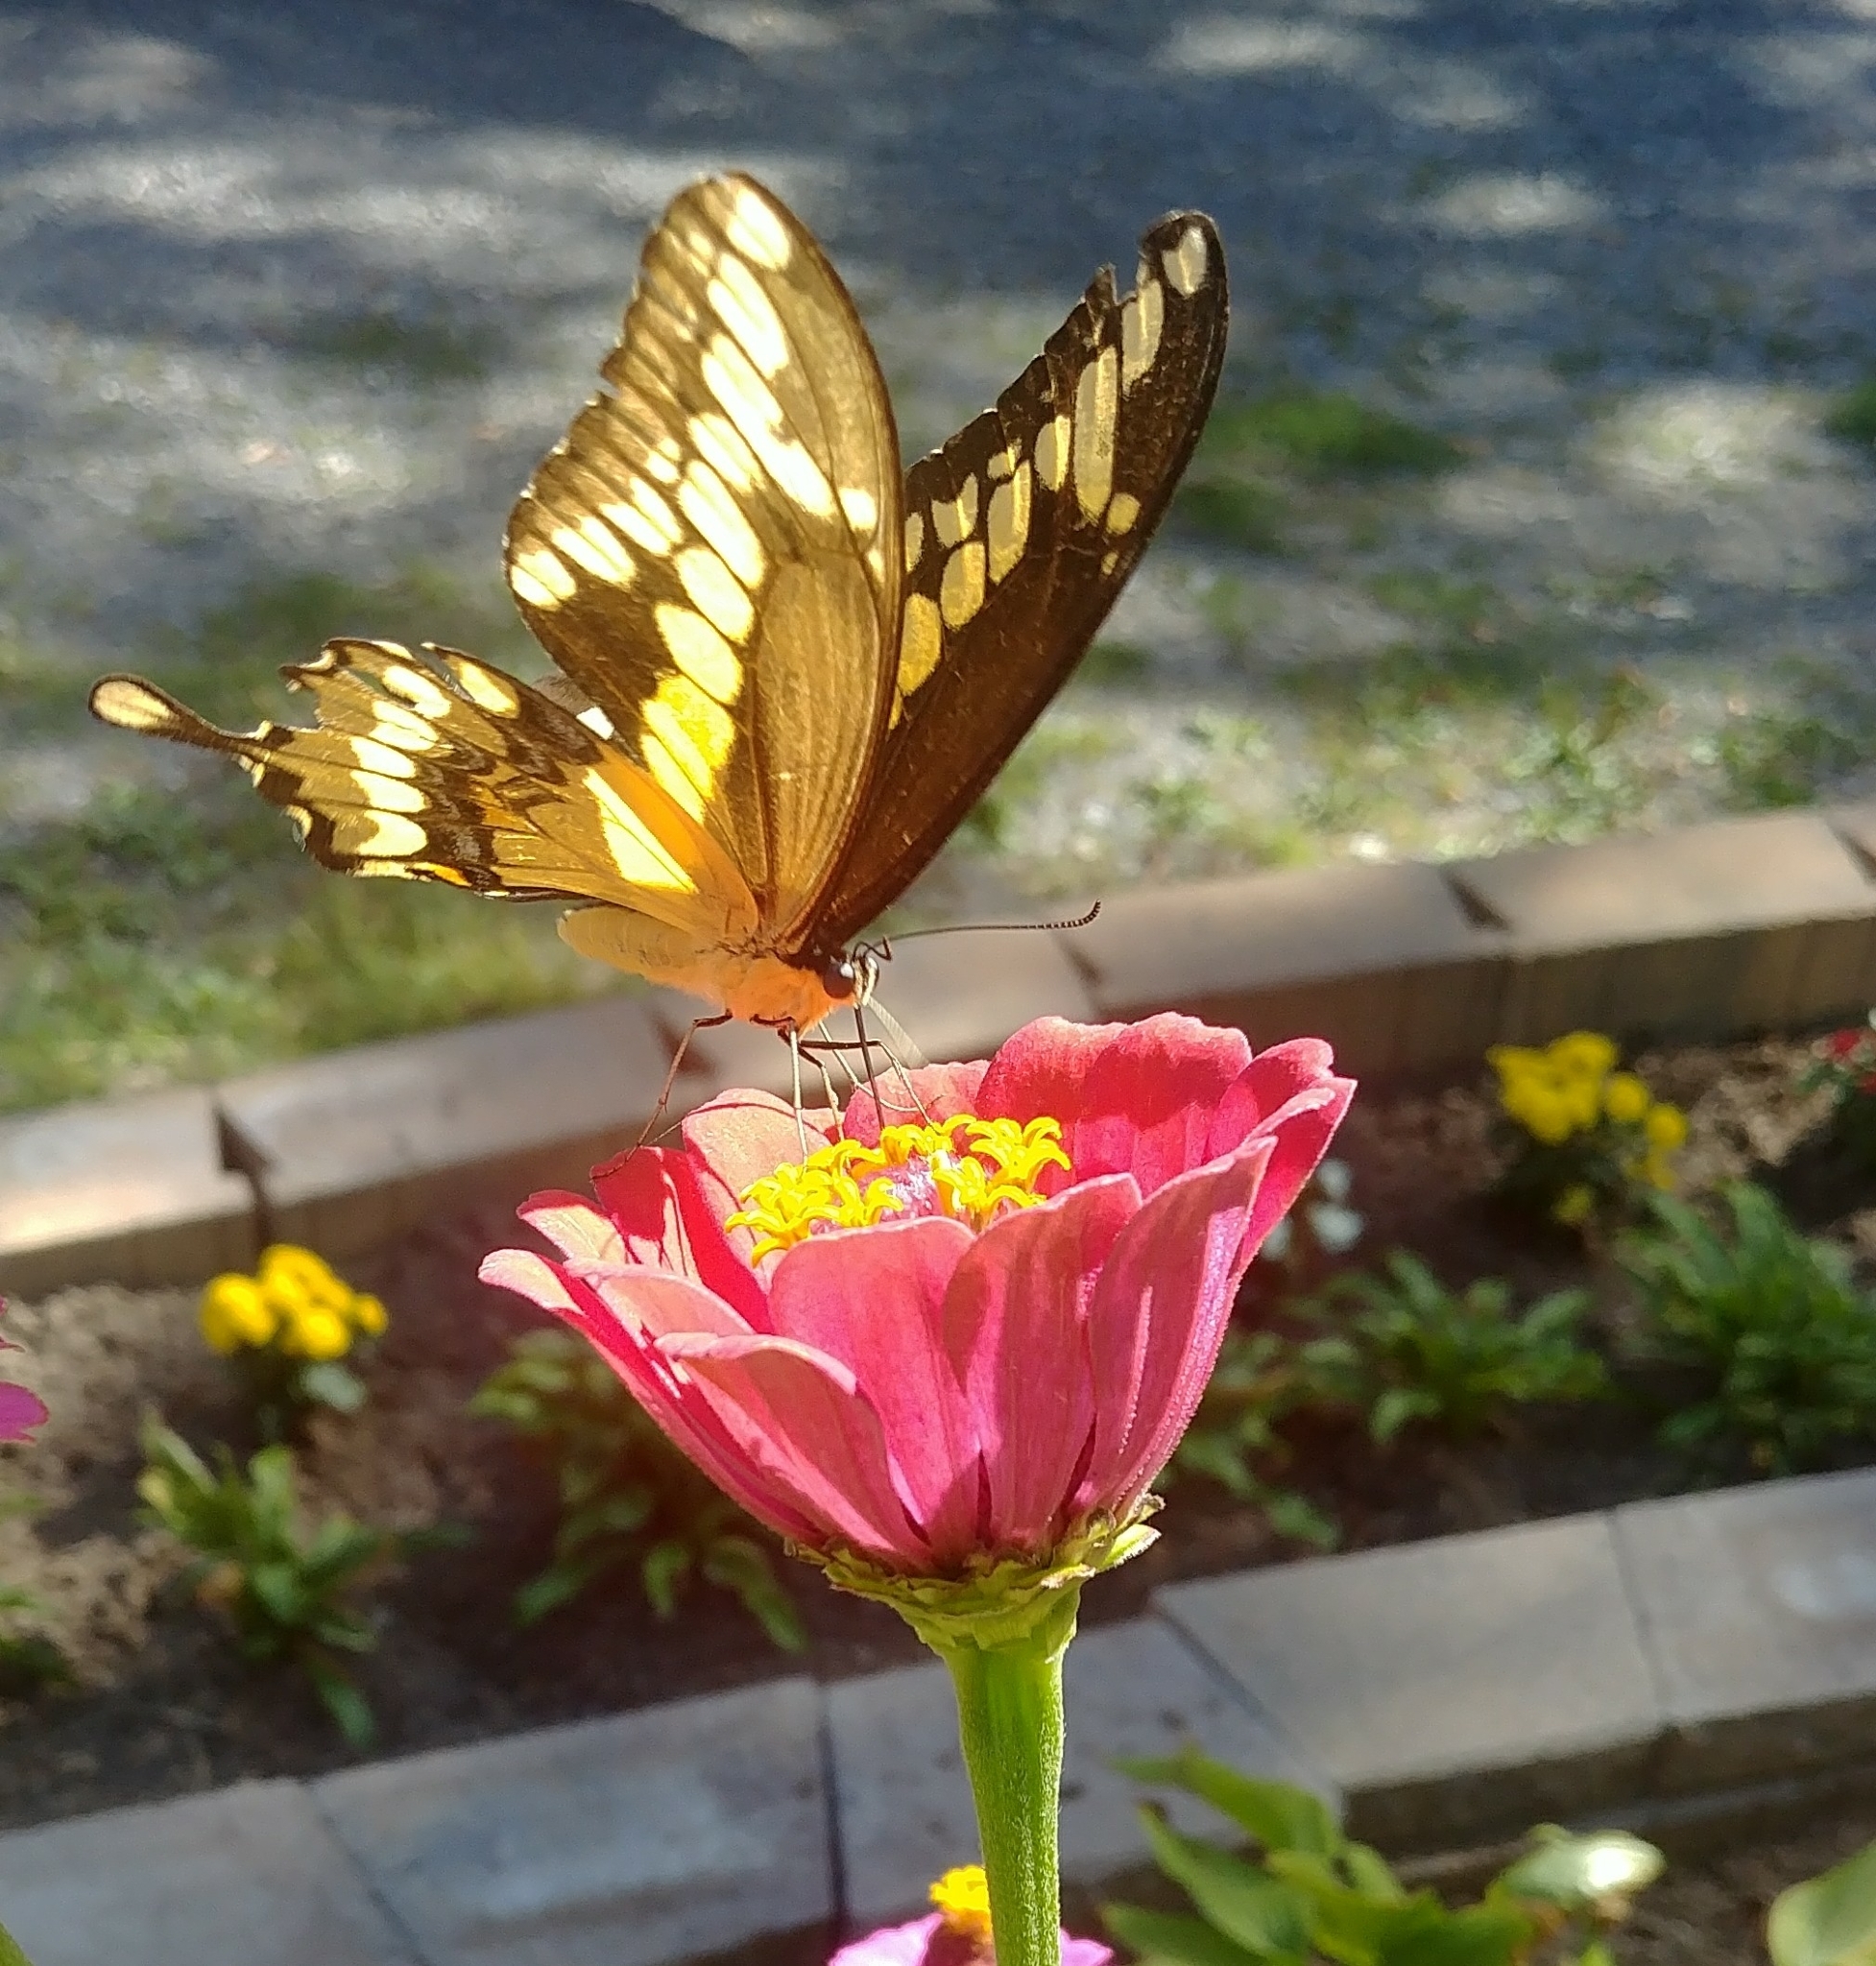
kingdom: Animalia
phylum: Arthropoda
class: Insecta
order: Lepidoptera
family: Papilionidae
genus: Papilio
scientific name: Papilio cresphontes
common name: Giant swallowtail
